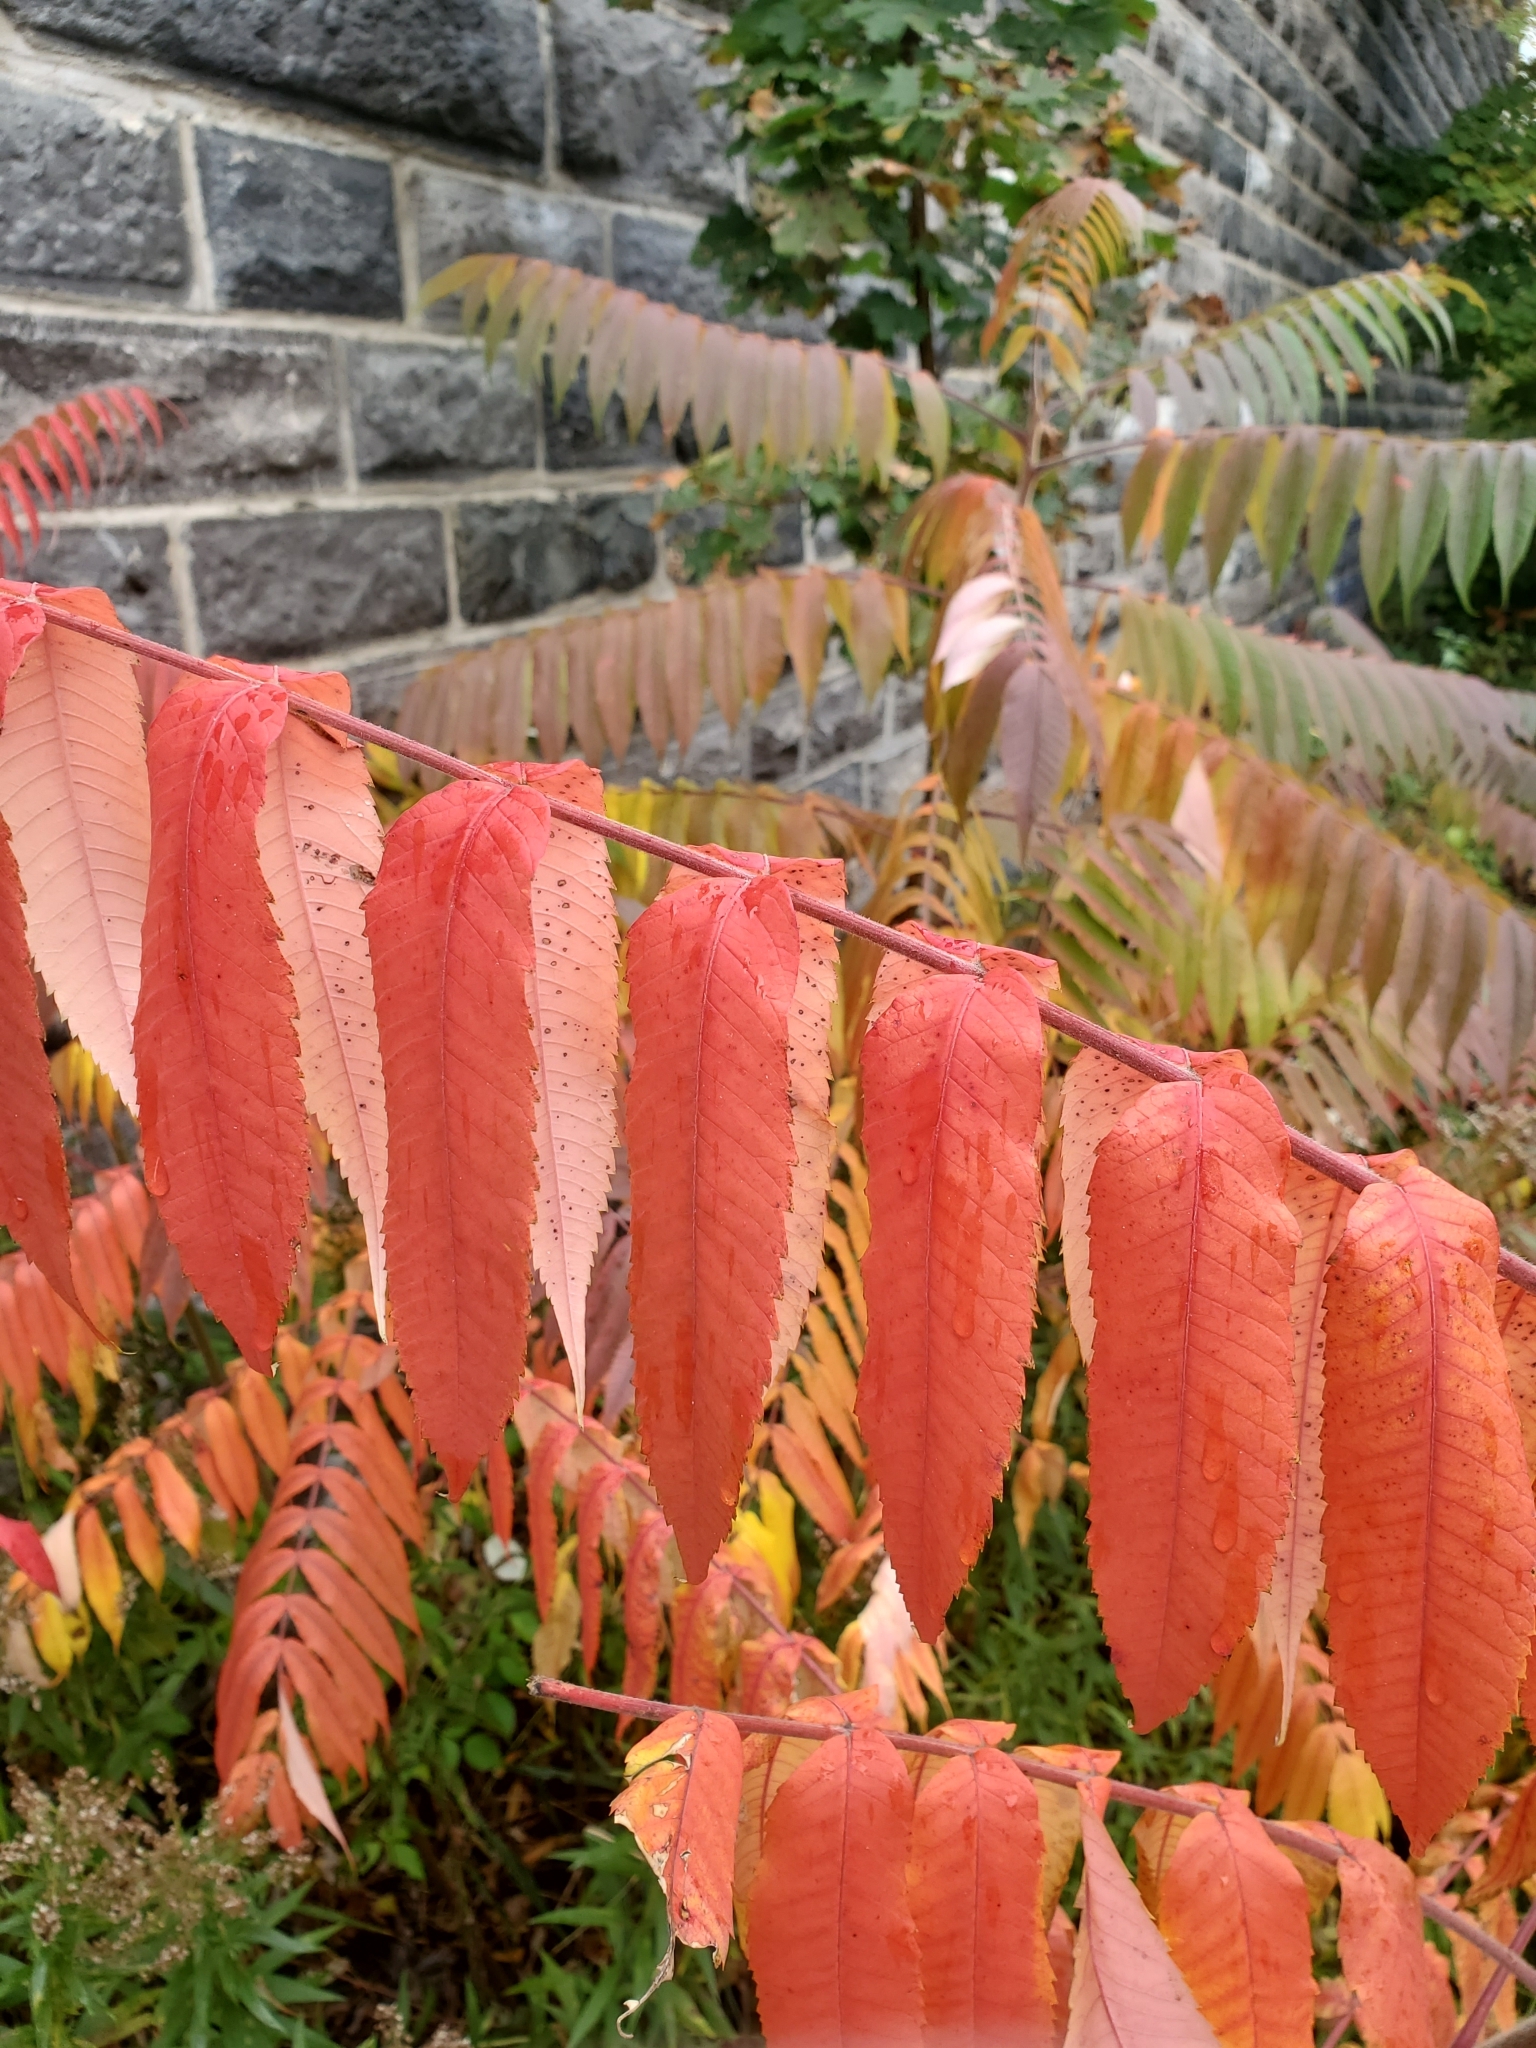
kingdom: Plantae
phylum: Tracheophyta
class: Magnoliopsida
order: Sapindales
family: Anacardiaceae
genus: Rhus
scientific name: Rhus typhina
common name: Staghorn sumac
